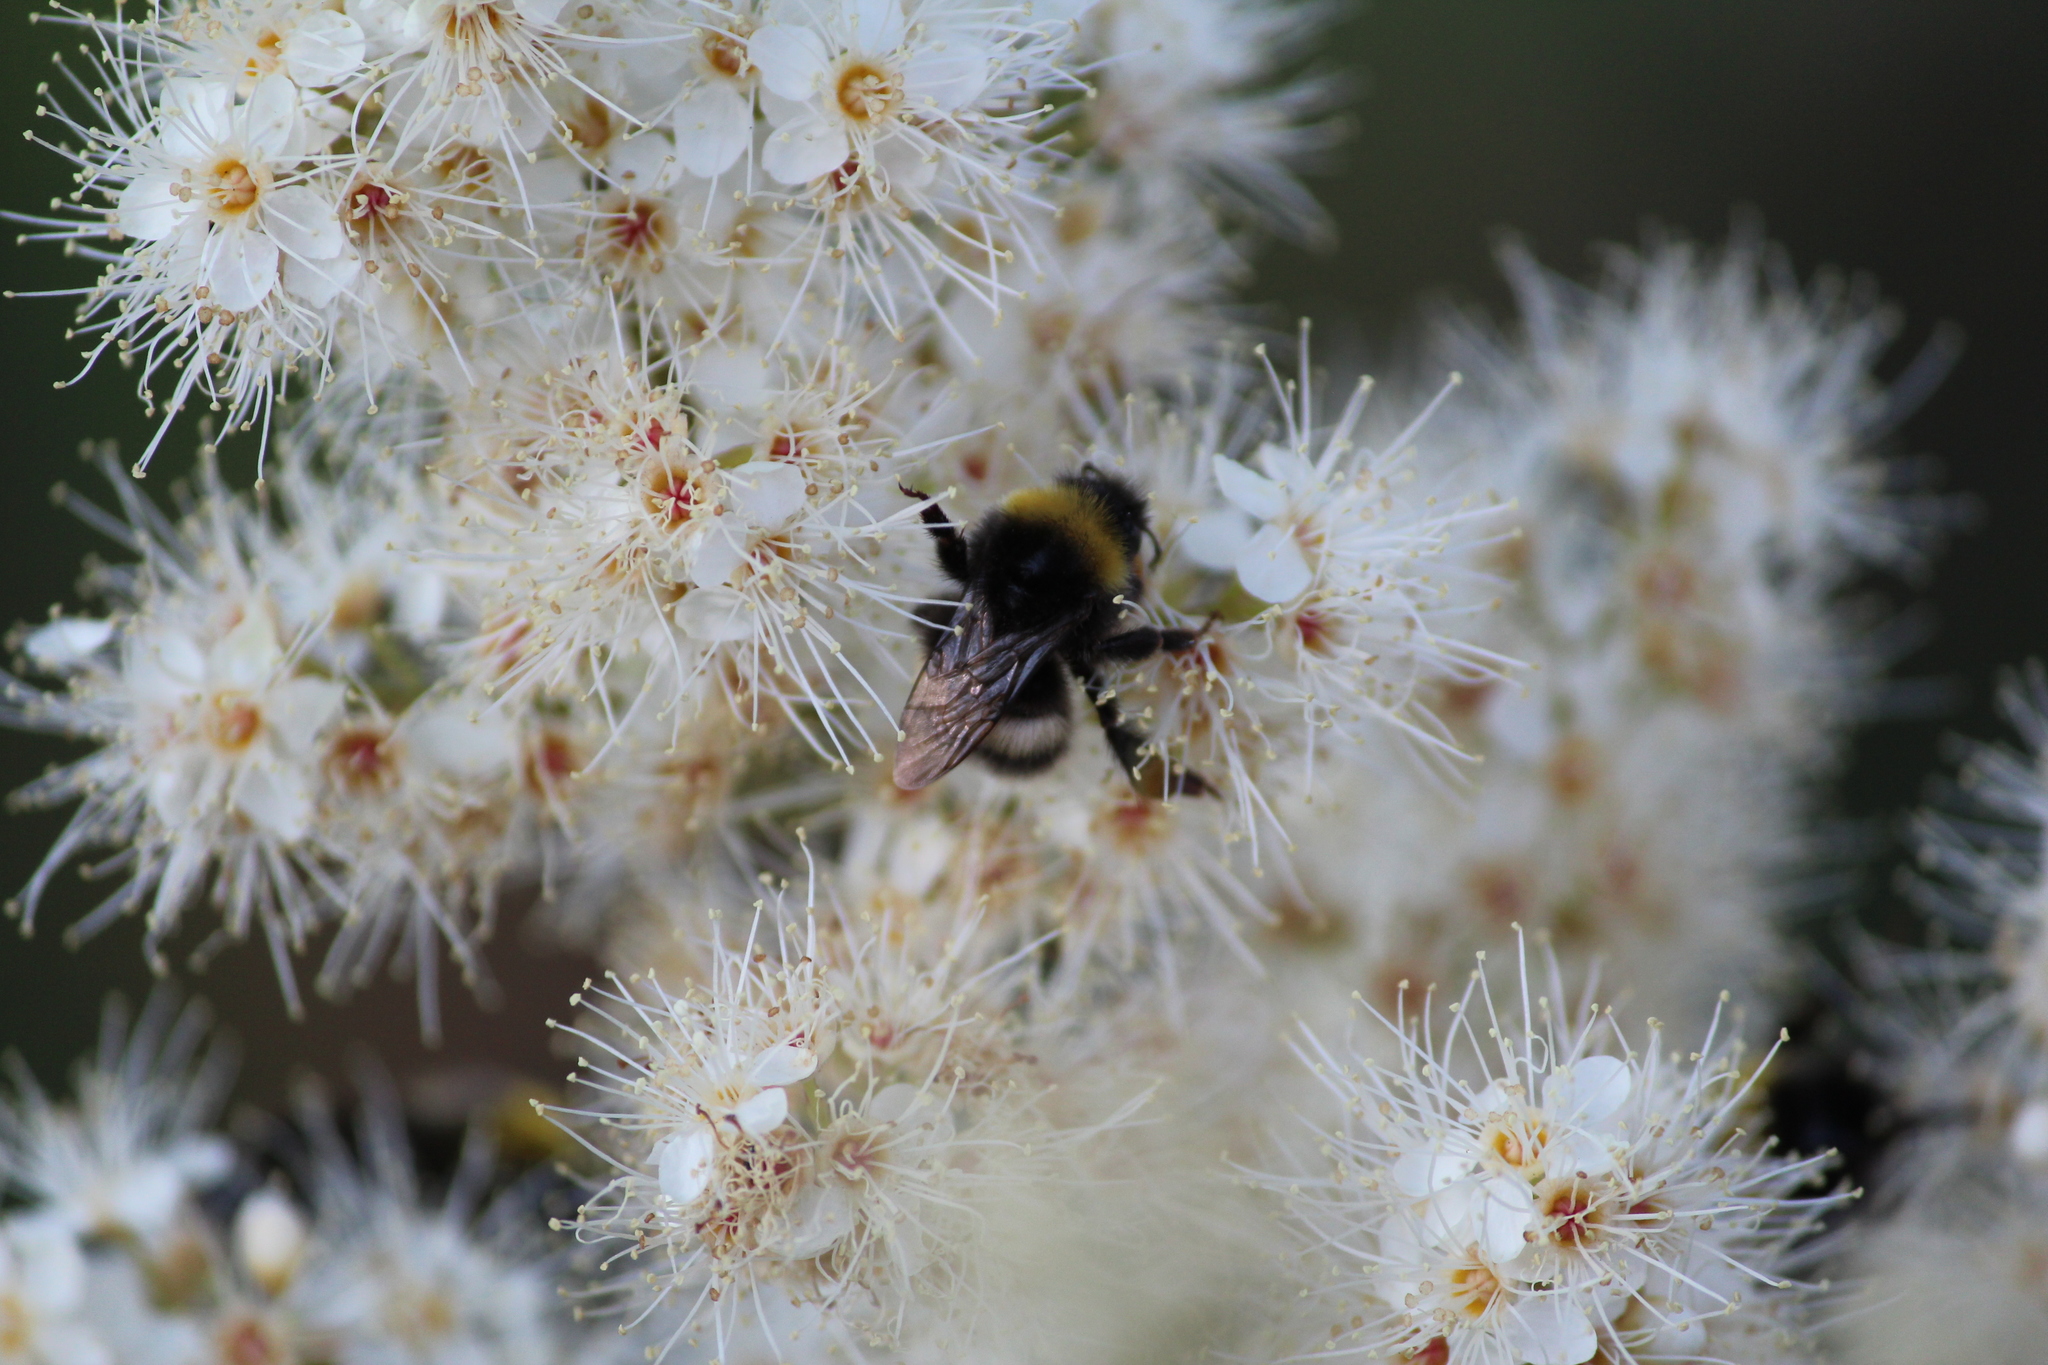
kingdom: Animalia
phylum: Arthropoda
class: Insecta
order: Hymenoptera
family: Apidae
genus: Bombus
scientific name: Bombus
